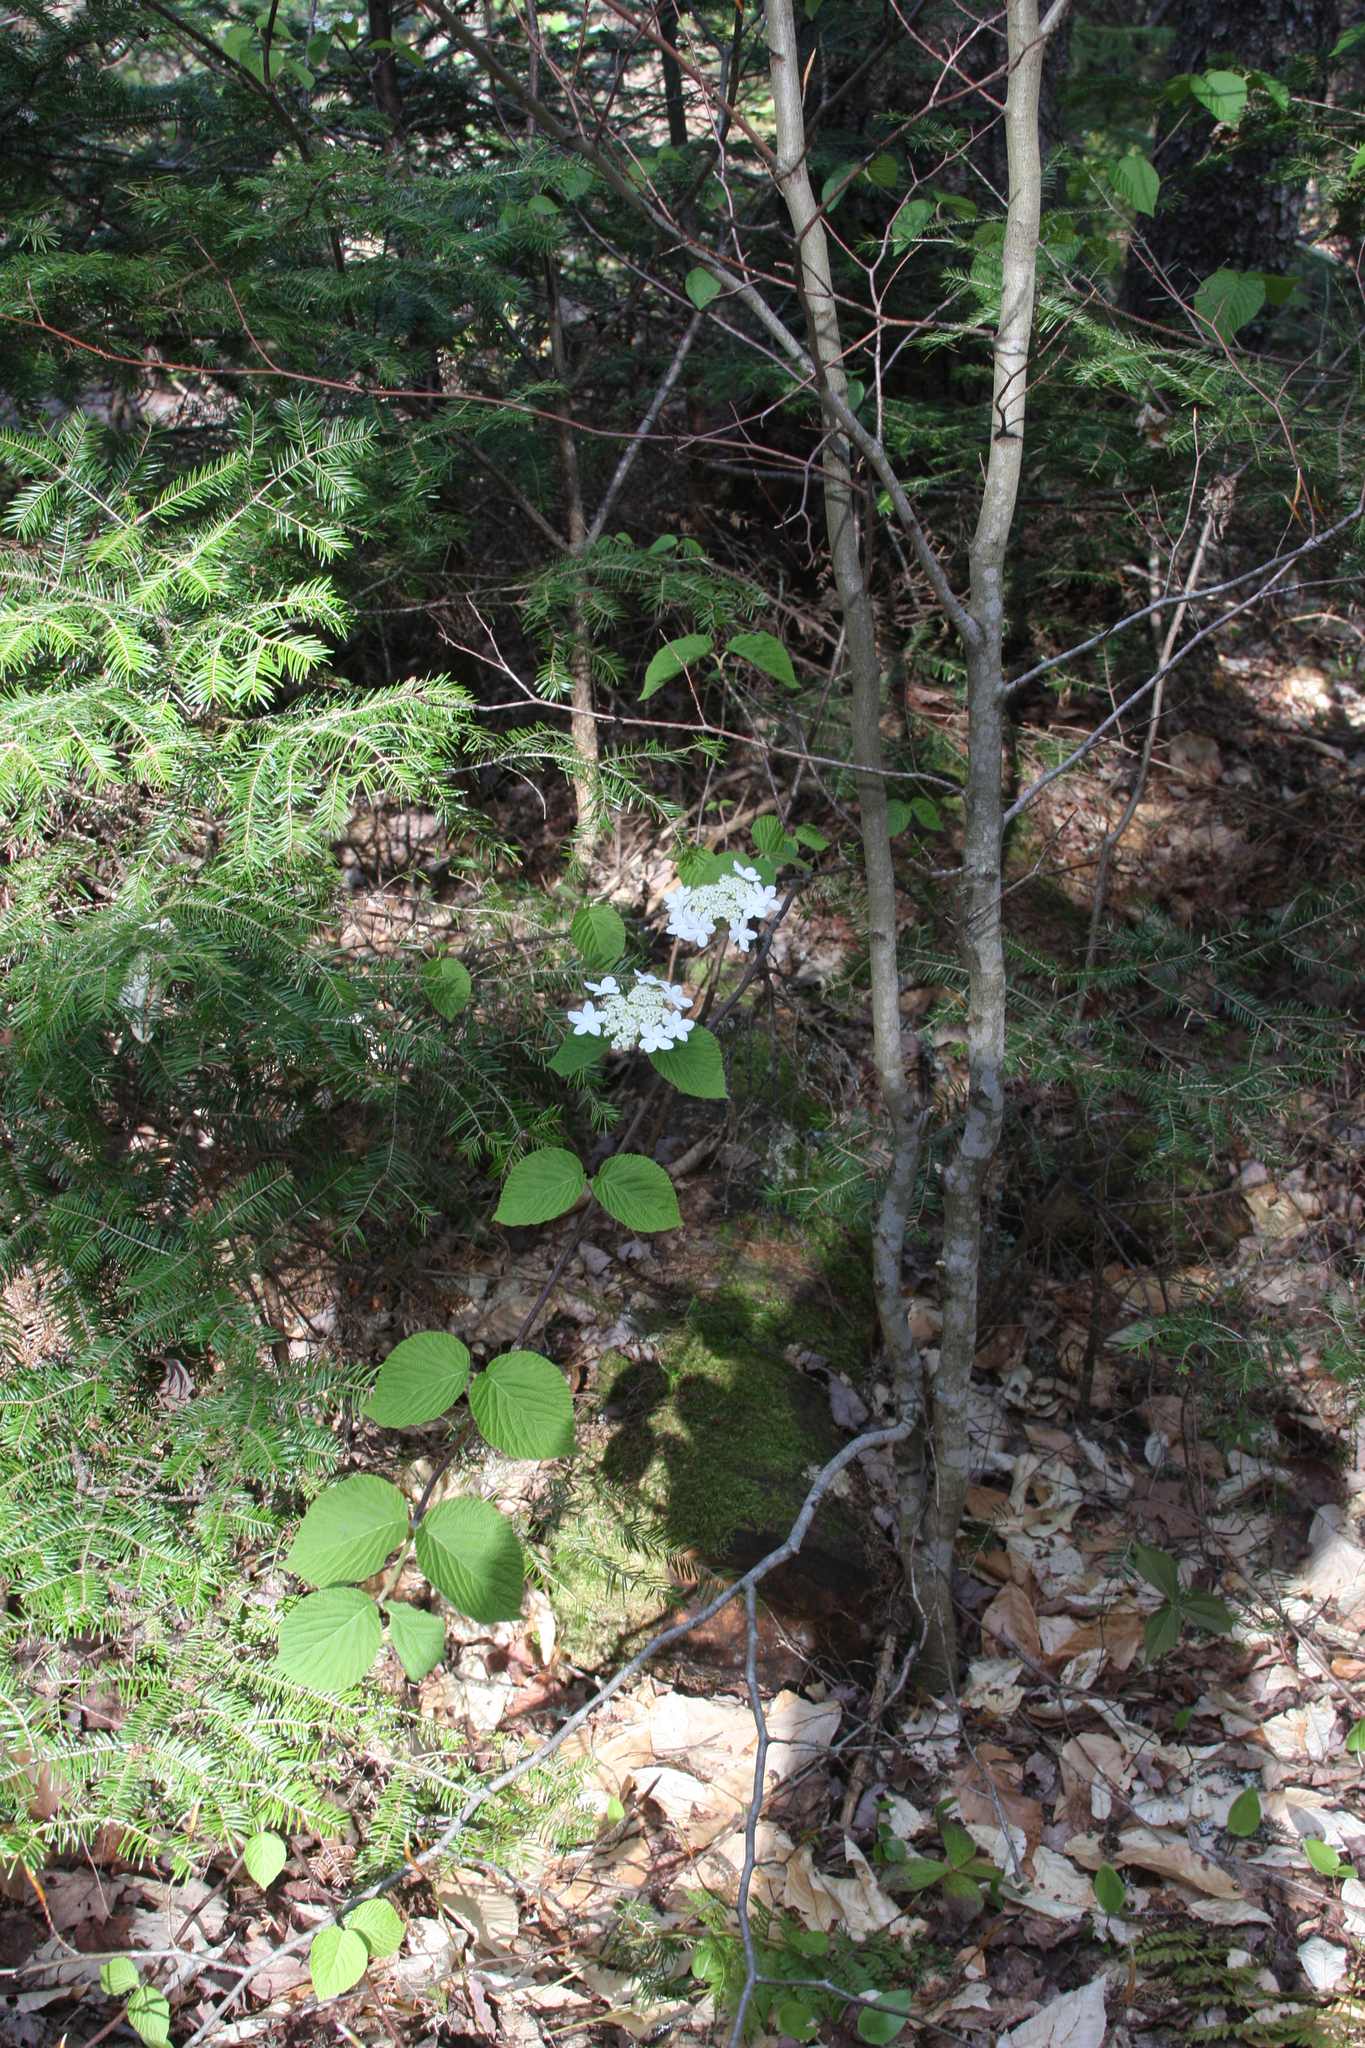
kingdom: Plantae
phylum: Tracheophyta
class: Magnoliopsida
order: Dipsacales
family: Viburnaceae
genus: Viburnum
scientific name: Viburnum lantanoides
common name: Hobblebush
